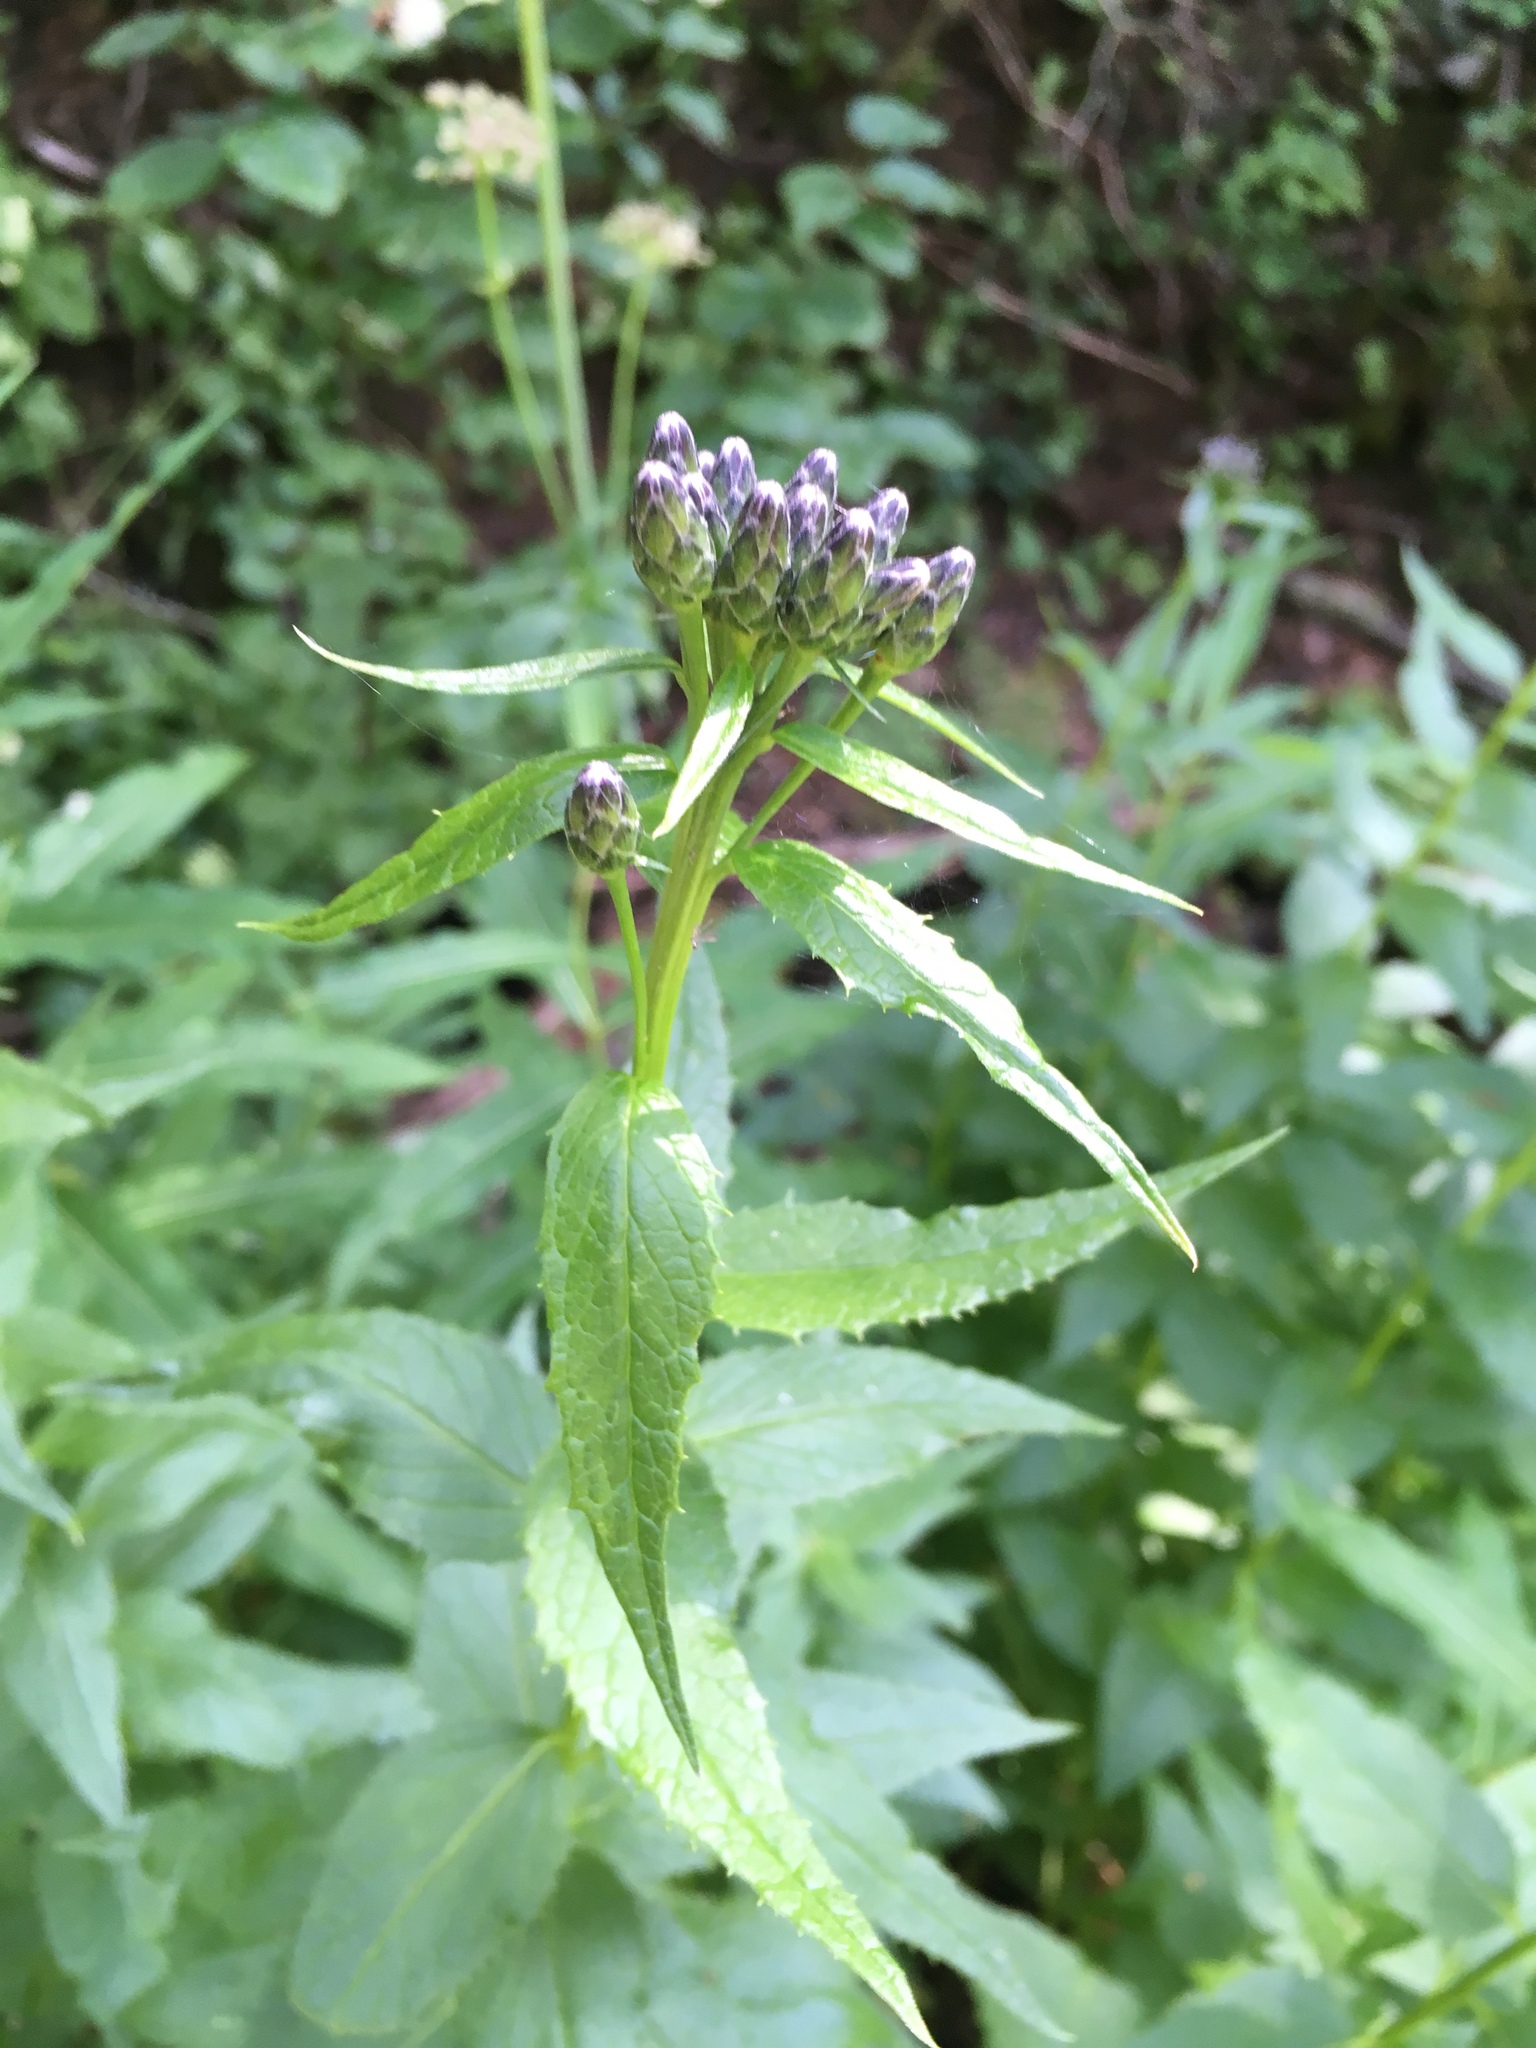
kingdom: Plantae
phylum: Tracheophyta
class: Magnoliopsida
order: Asterales
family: Asteraceae
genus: Saussurea
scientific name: Saussurea americana
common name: American saw-wort
